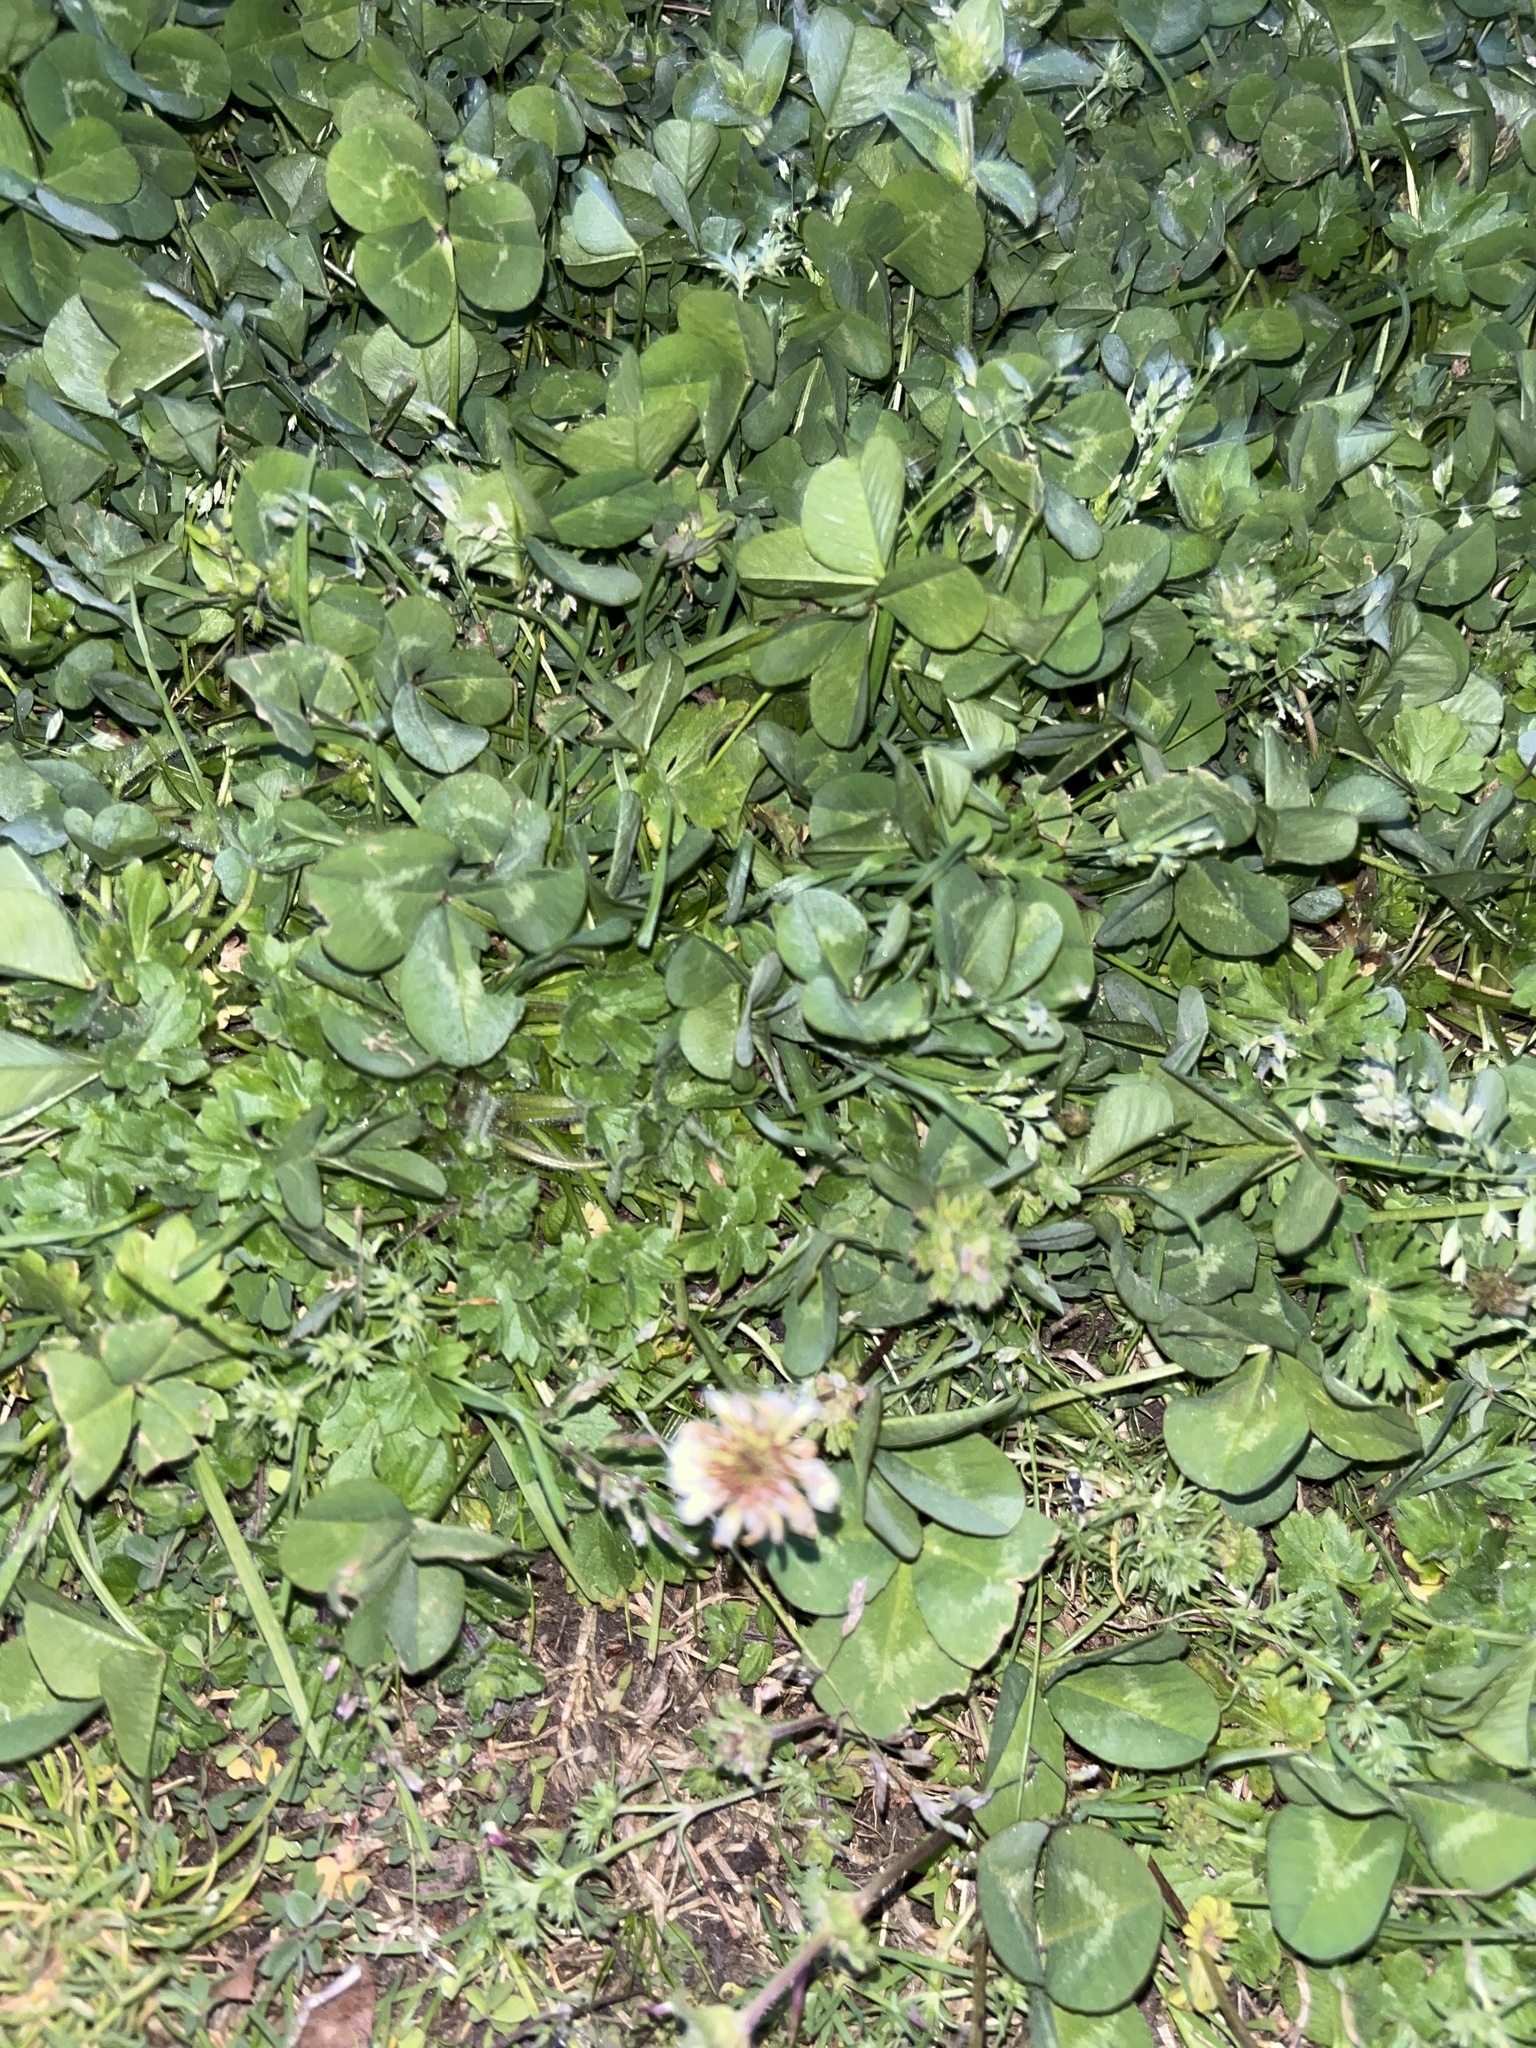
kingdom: Plantae
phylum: Tracheophyta
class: Magnoliopsida
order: Fabales
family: Fabaceae
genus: Trifolium
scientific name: Trifolium repens
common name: White clover
